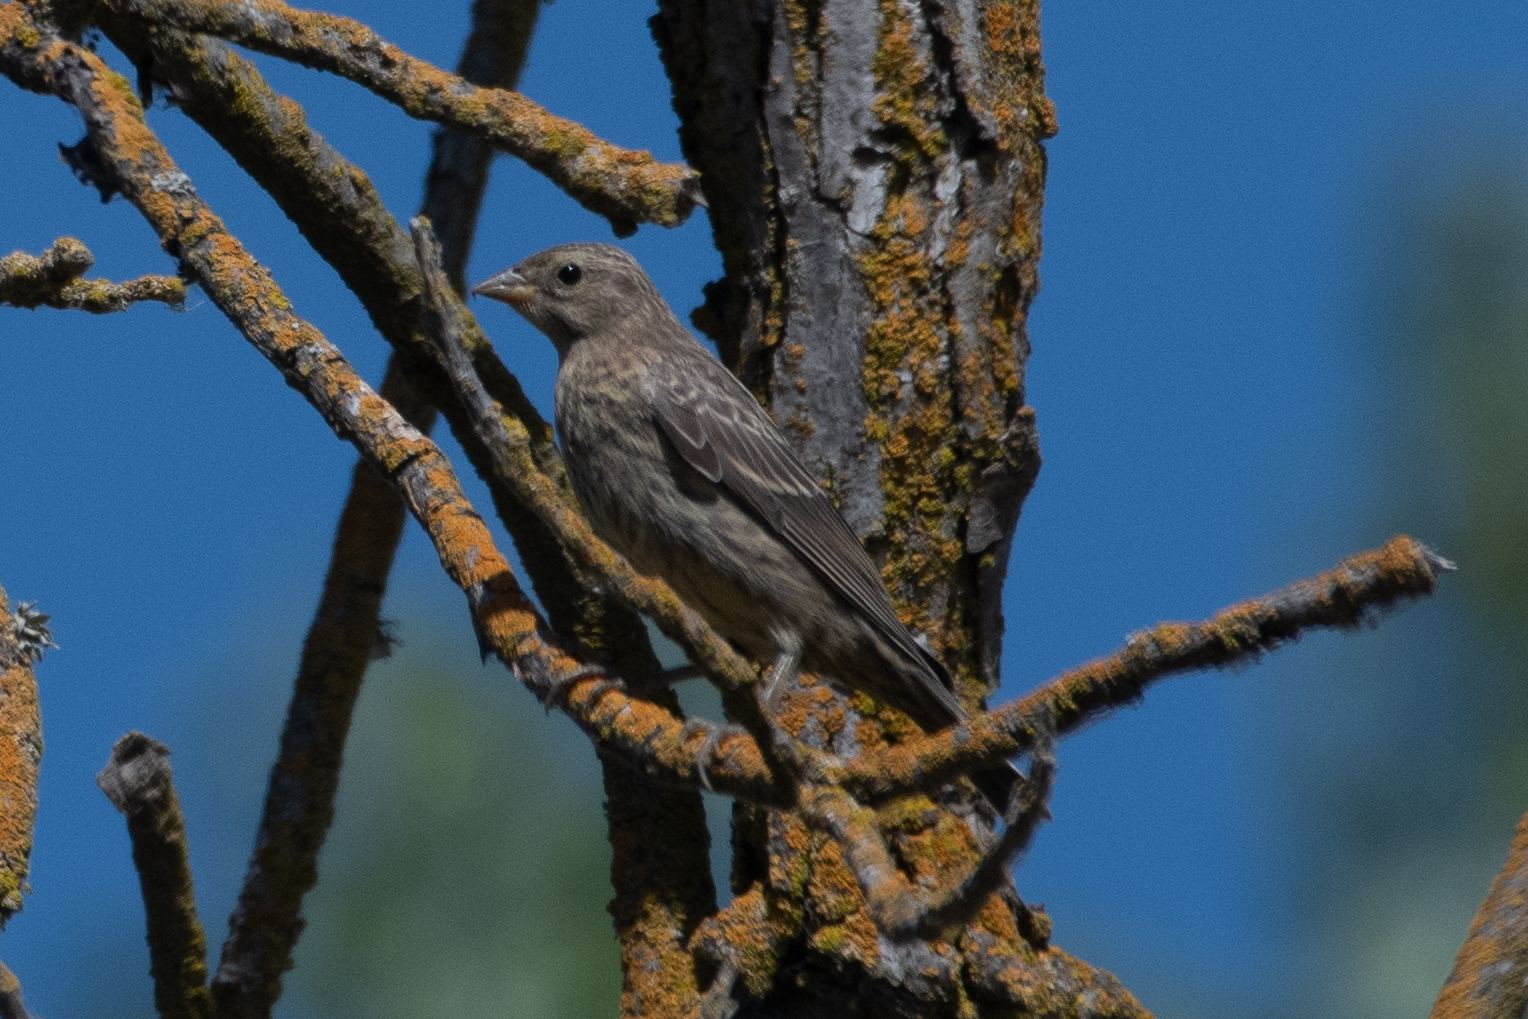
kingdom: Animalia
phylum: Chordata
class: Aves
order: Passeriformes
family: Icteridae
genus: Molothrus
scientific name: Molothrus ater
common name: Brown-headed cowbird
